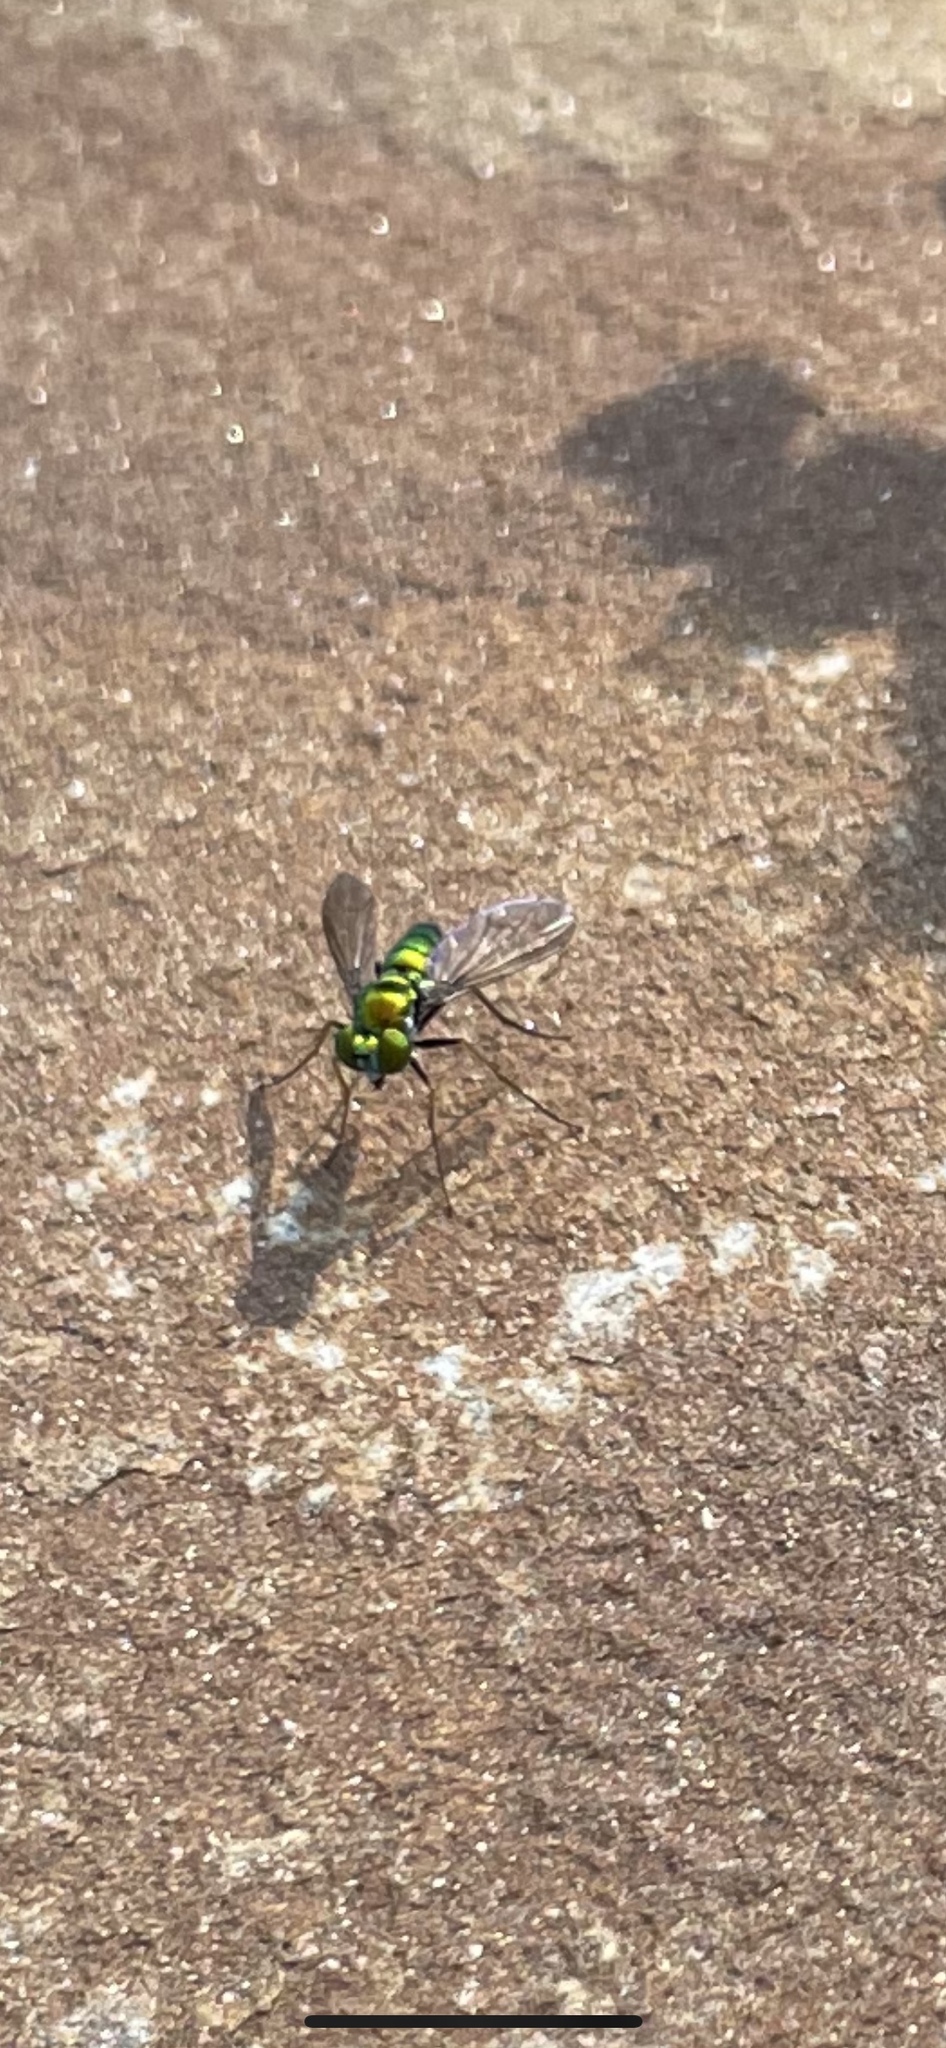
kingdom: Animalia
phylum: Arthropoda
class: Insecta
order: Diptera
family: Dolichopodidae
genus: Condylostylus
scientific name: Condylostylus longicornis
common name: Long-legged fly
